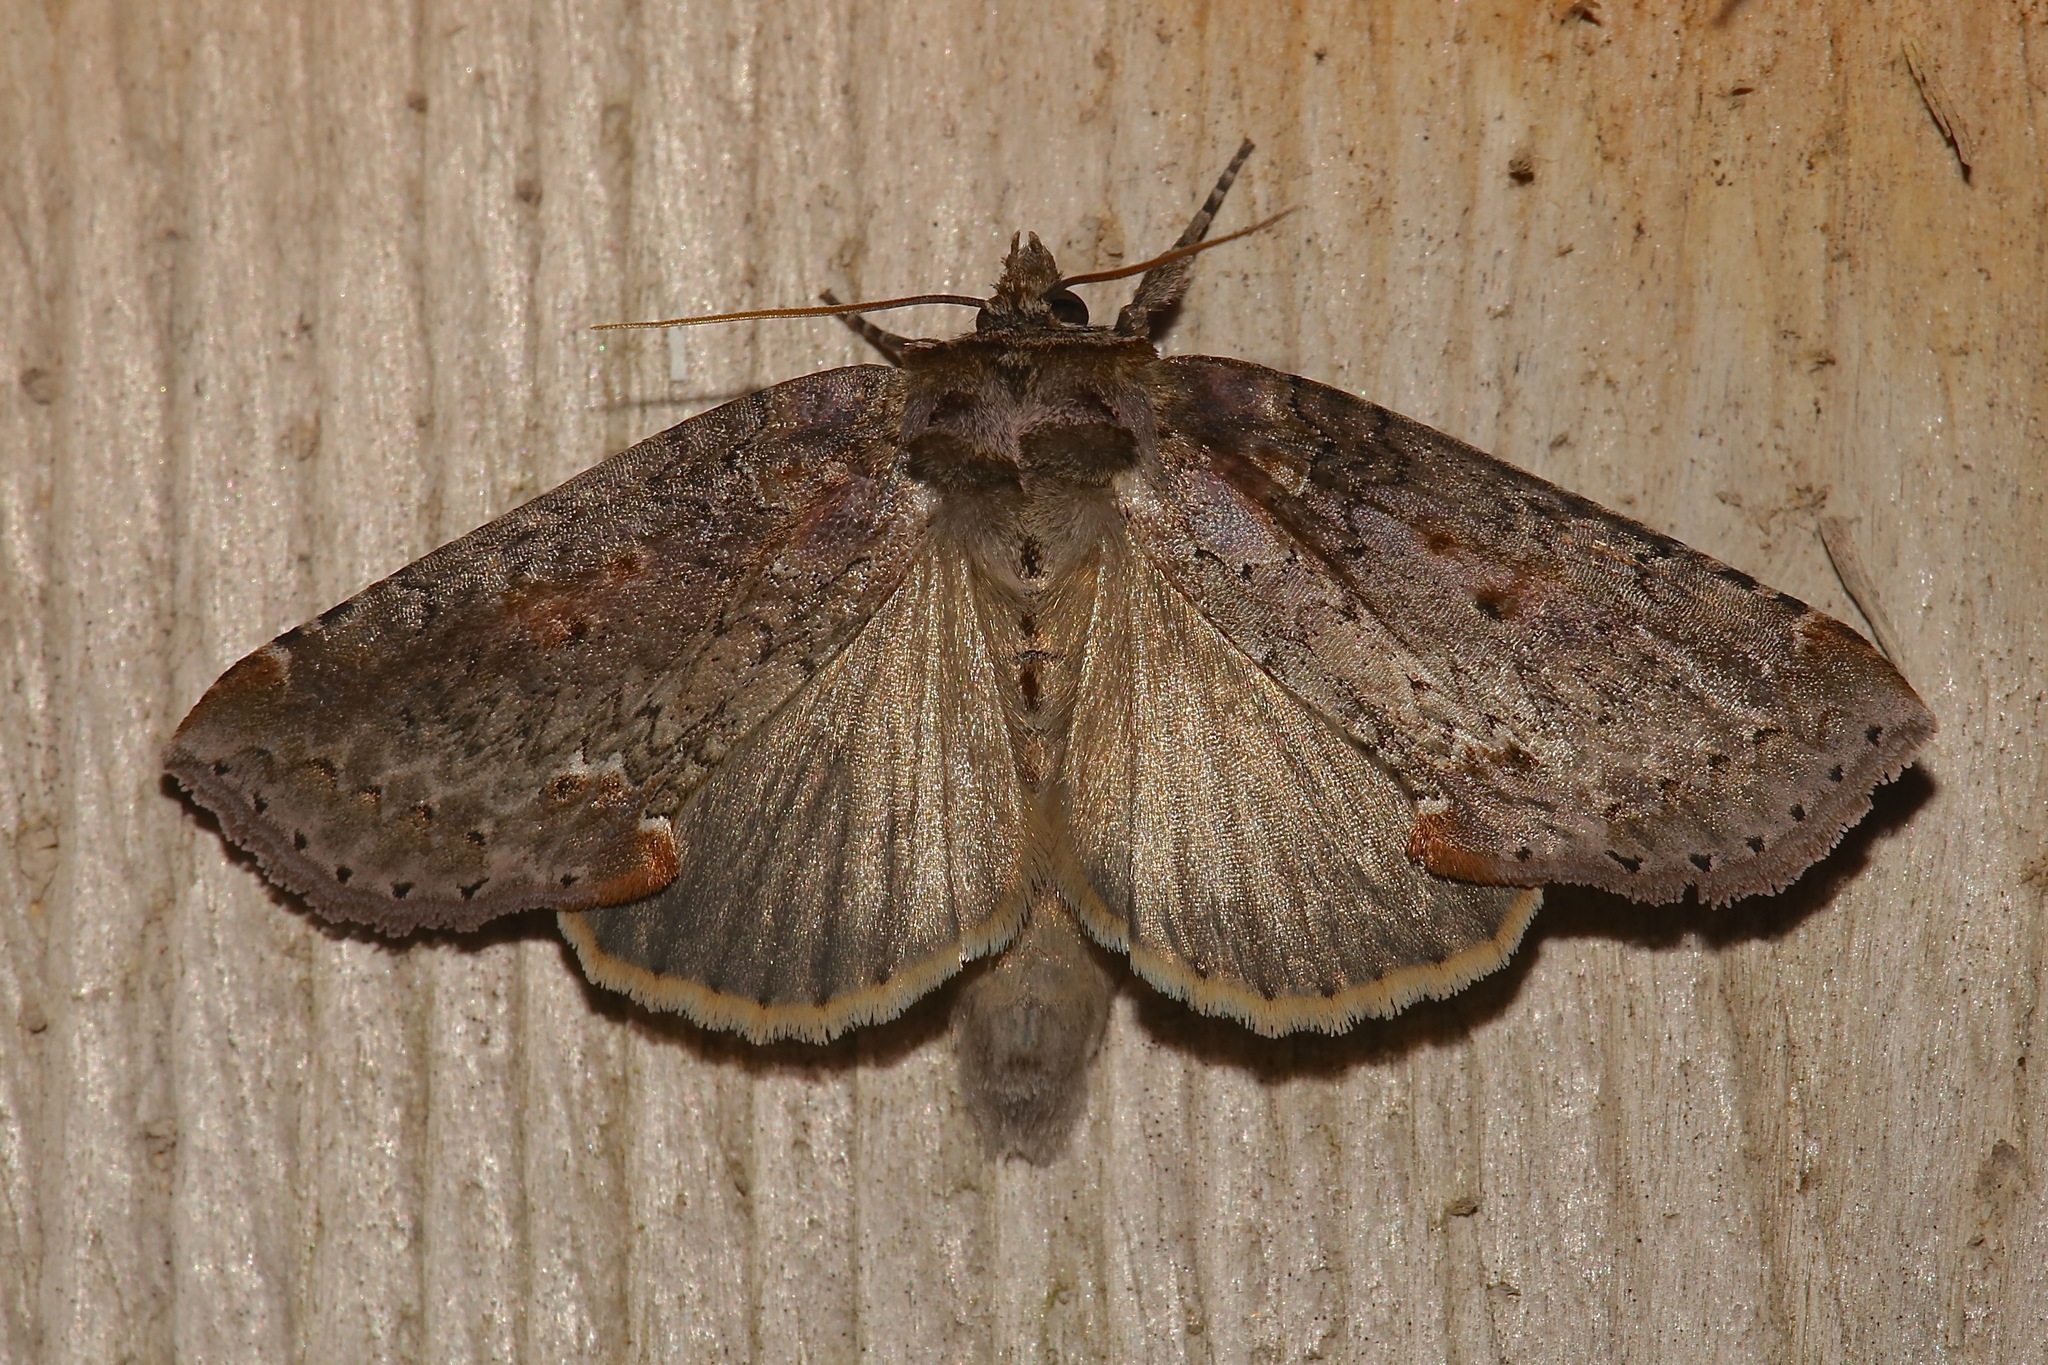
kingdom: Animalia
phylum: Arthropoda
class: Insecta
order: Lepidoptera
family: Drepanidae
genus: Pseudothyatira
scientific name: Pseudothyatira cymatophoroides
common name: Tufted thyatirid moth
